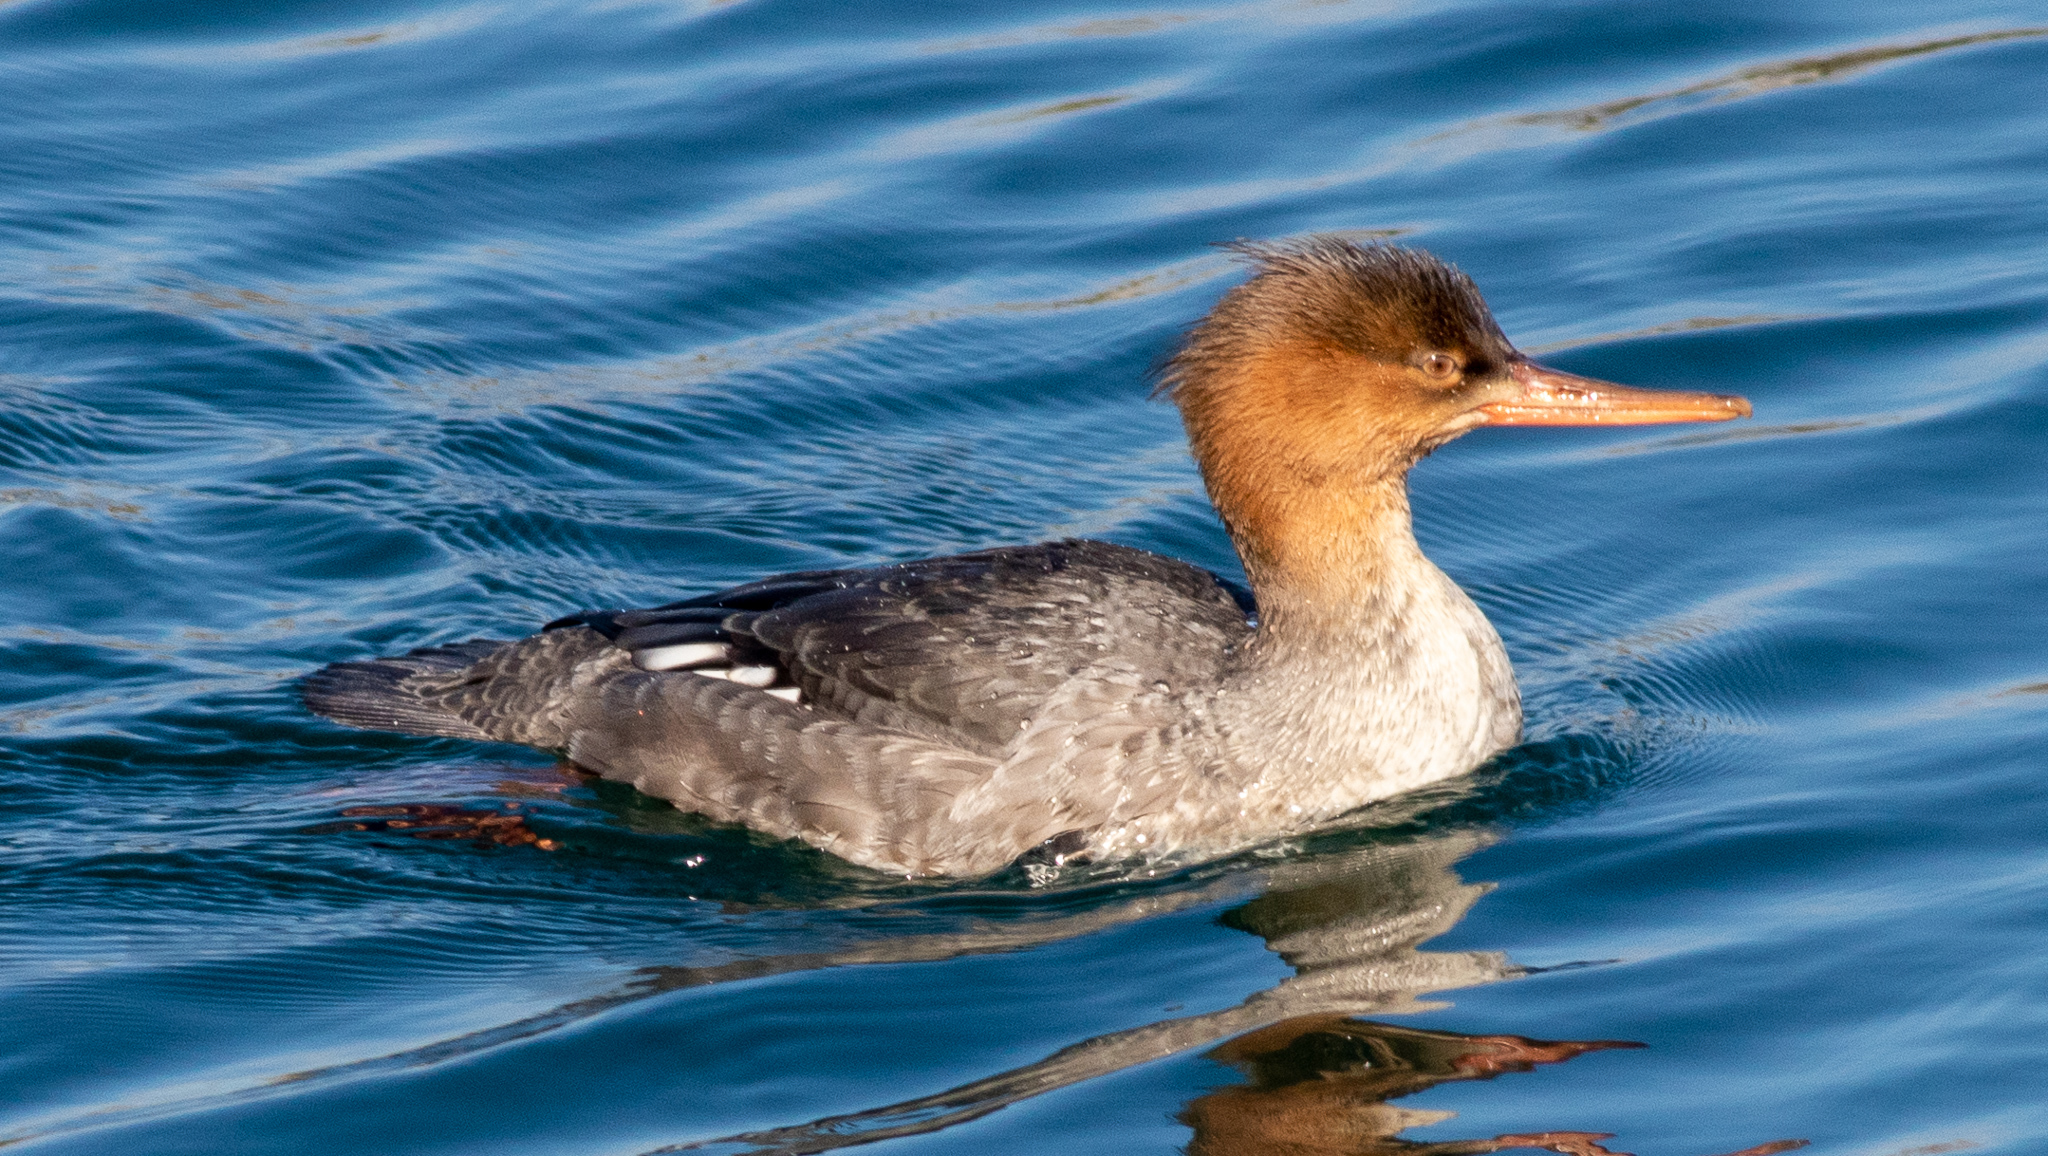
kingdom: Animalia
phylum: Chordata
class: Aves
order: Anseriformes
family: Anatidae
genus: Mergus
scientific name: Mergus serrator
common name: Red-breasted merganser
